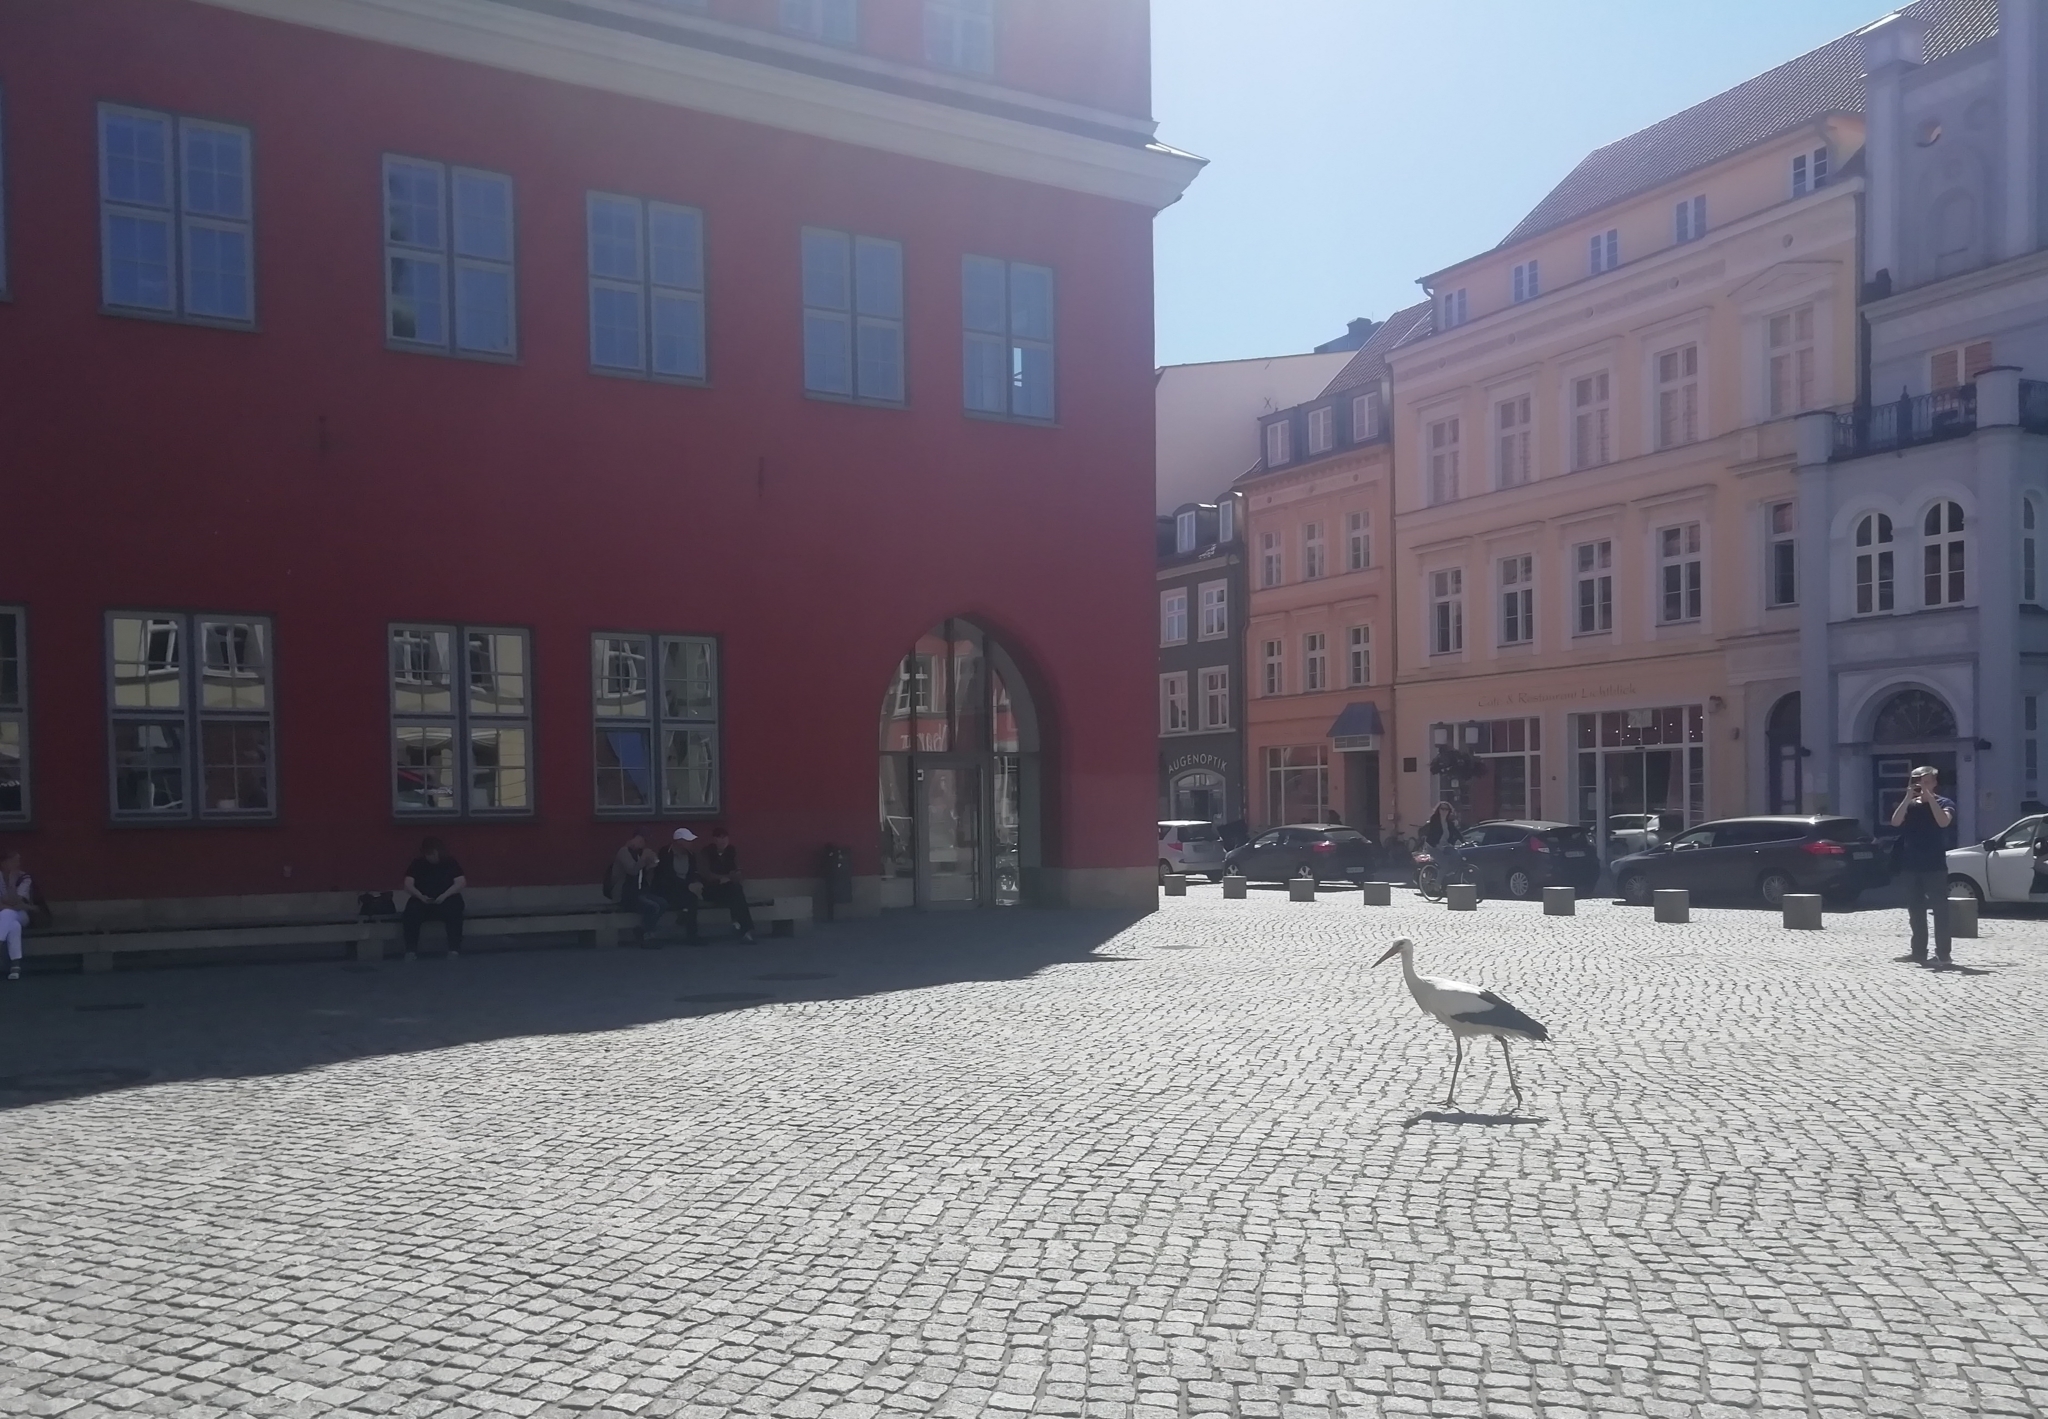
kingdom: Animalia
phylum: Chordata
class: Aves
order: Ciconiiformes
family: Ciconiidae
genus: Ciconia
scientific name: Ciconia ciconia
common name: White stork
